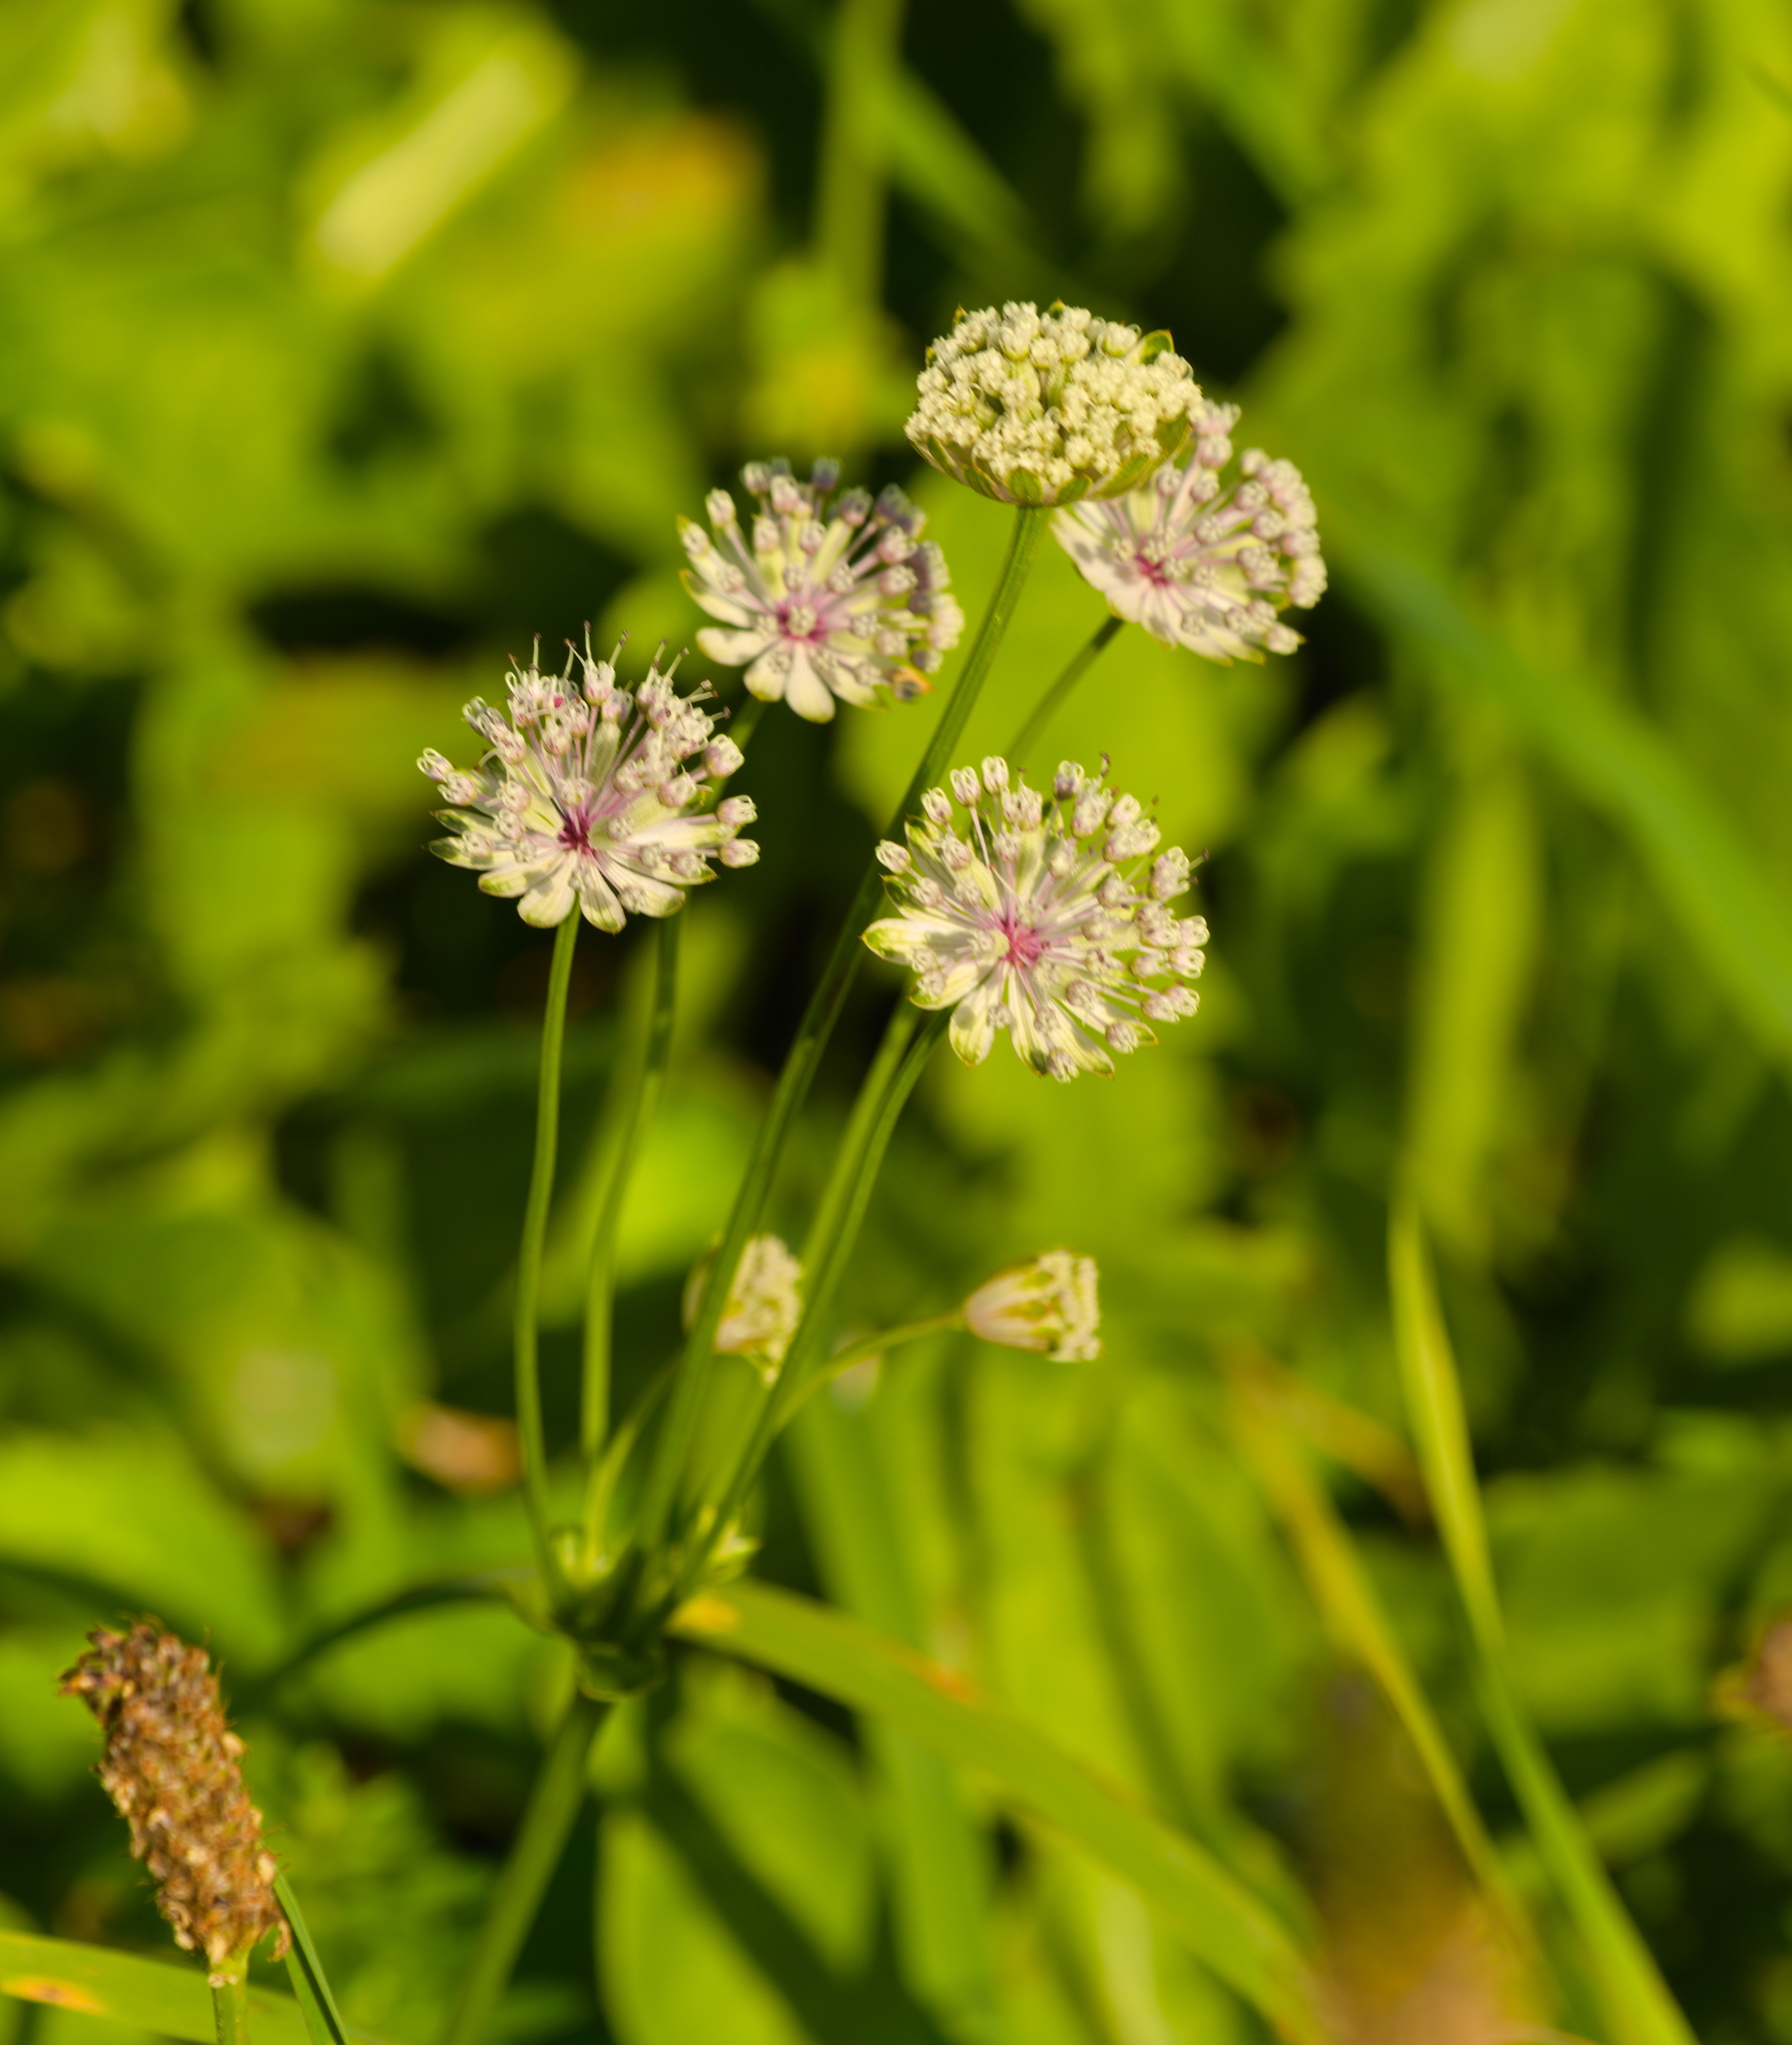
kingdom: Plantae
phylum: Tracheophyta
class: Magnoliopsida
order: Apiales
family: Apiaceae
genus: Astrantia
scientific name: Astrantia major
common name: Greater masterwort
